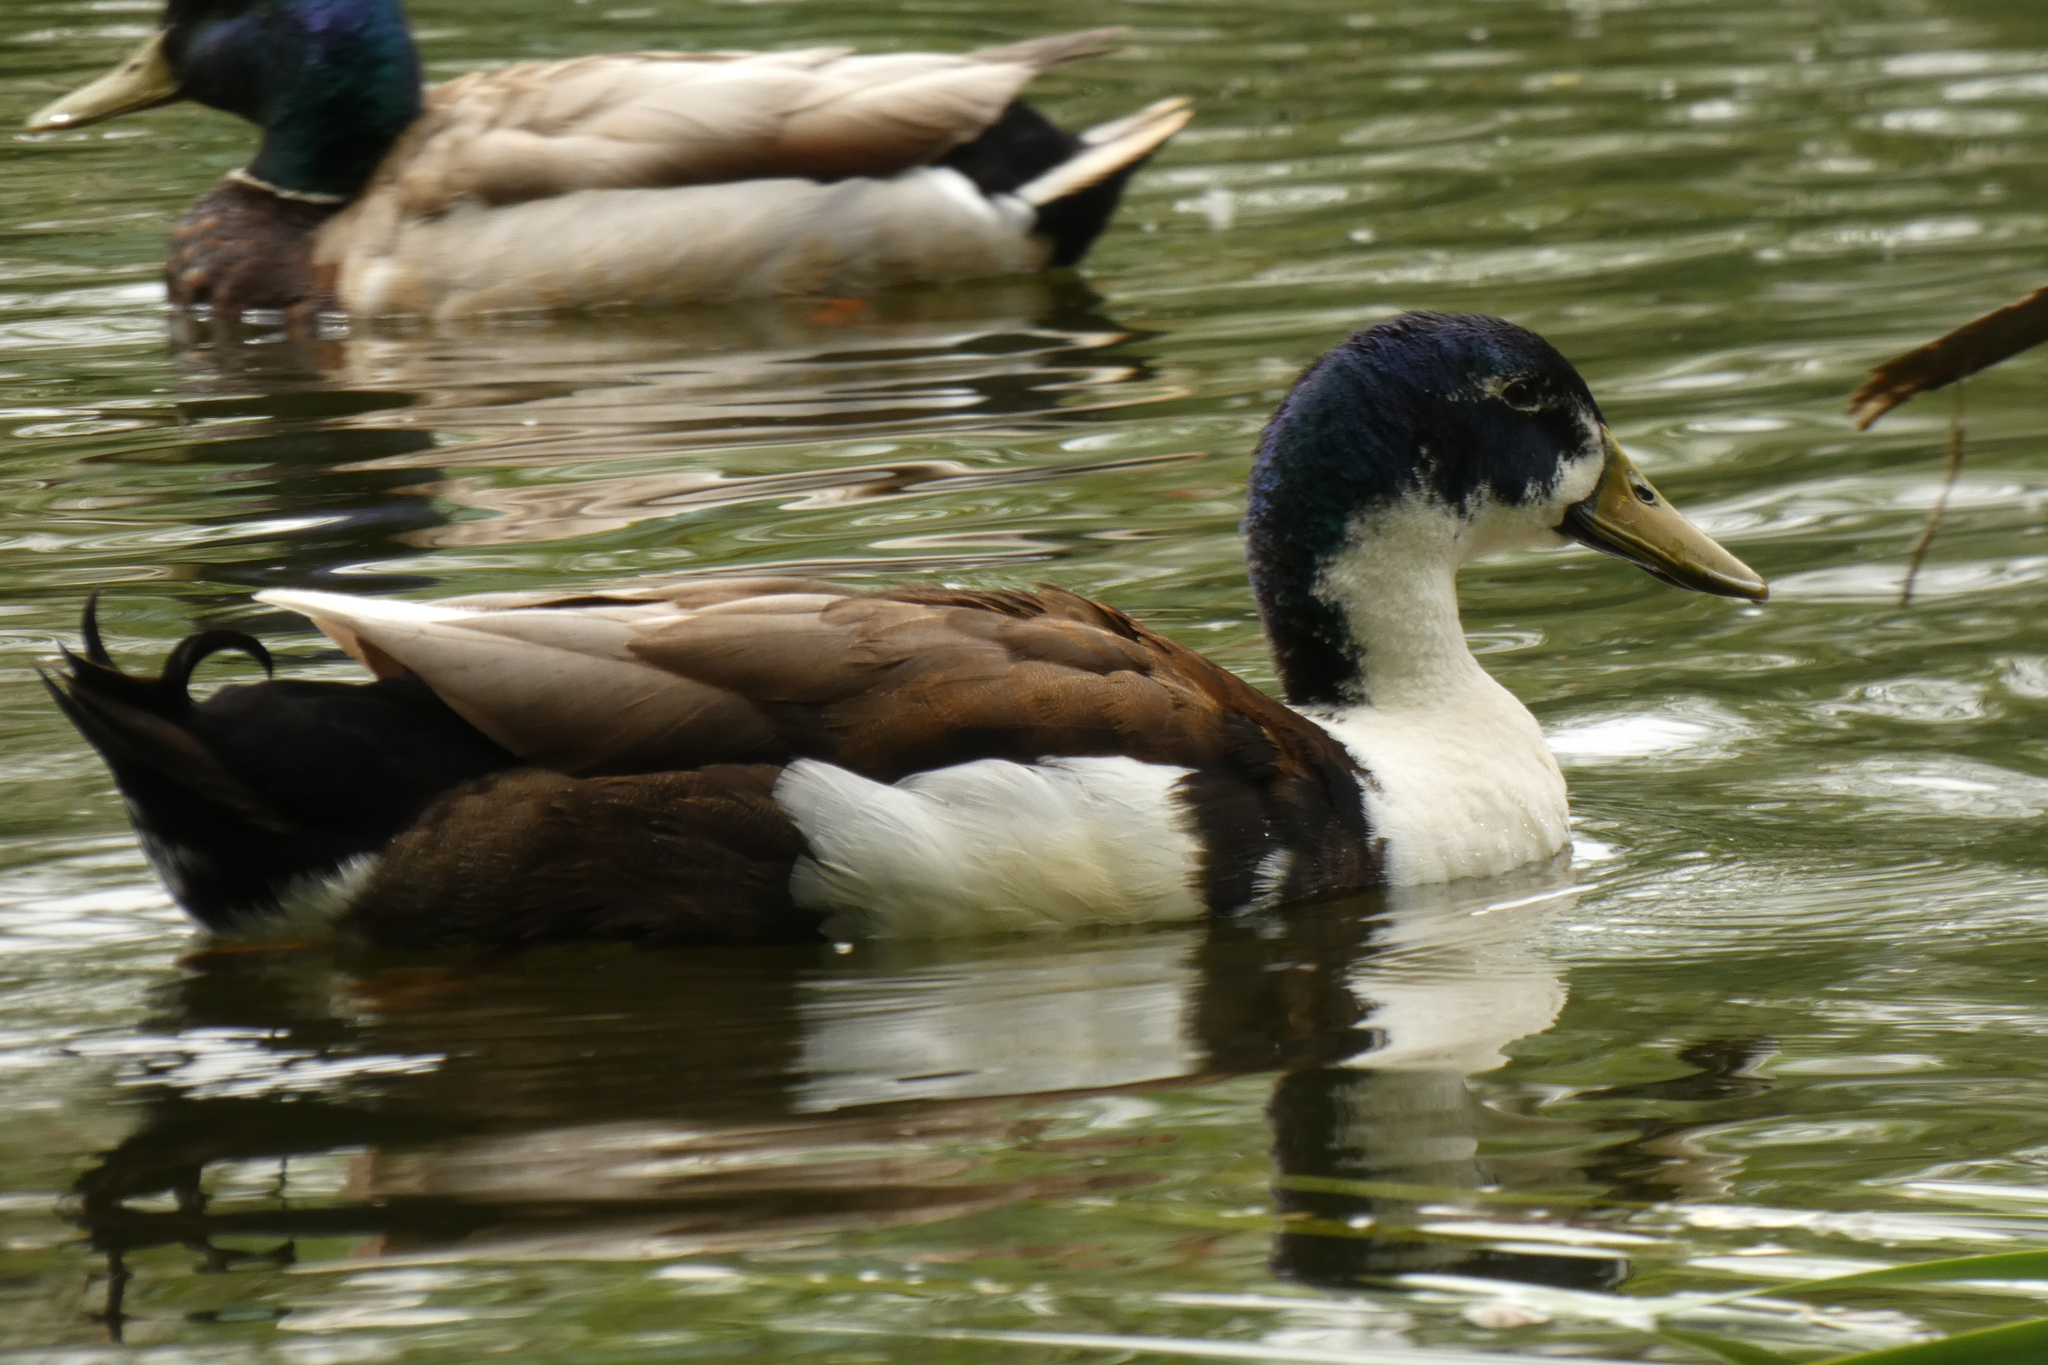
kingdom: Animalia
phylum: Chordata
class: Aves
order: Anseriformes
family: Anatidae
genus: Anas
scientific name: Anas platyrhynchos
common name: Mallard
